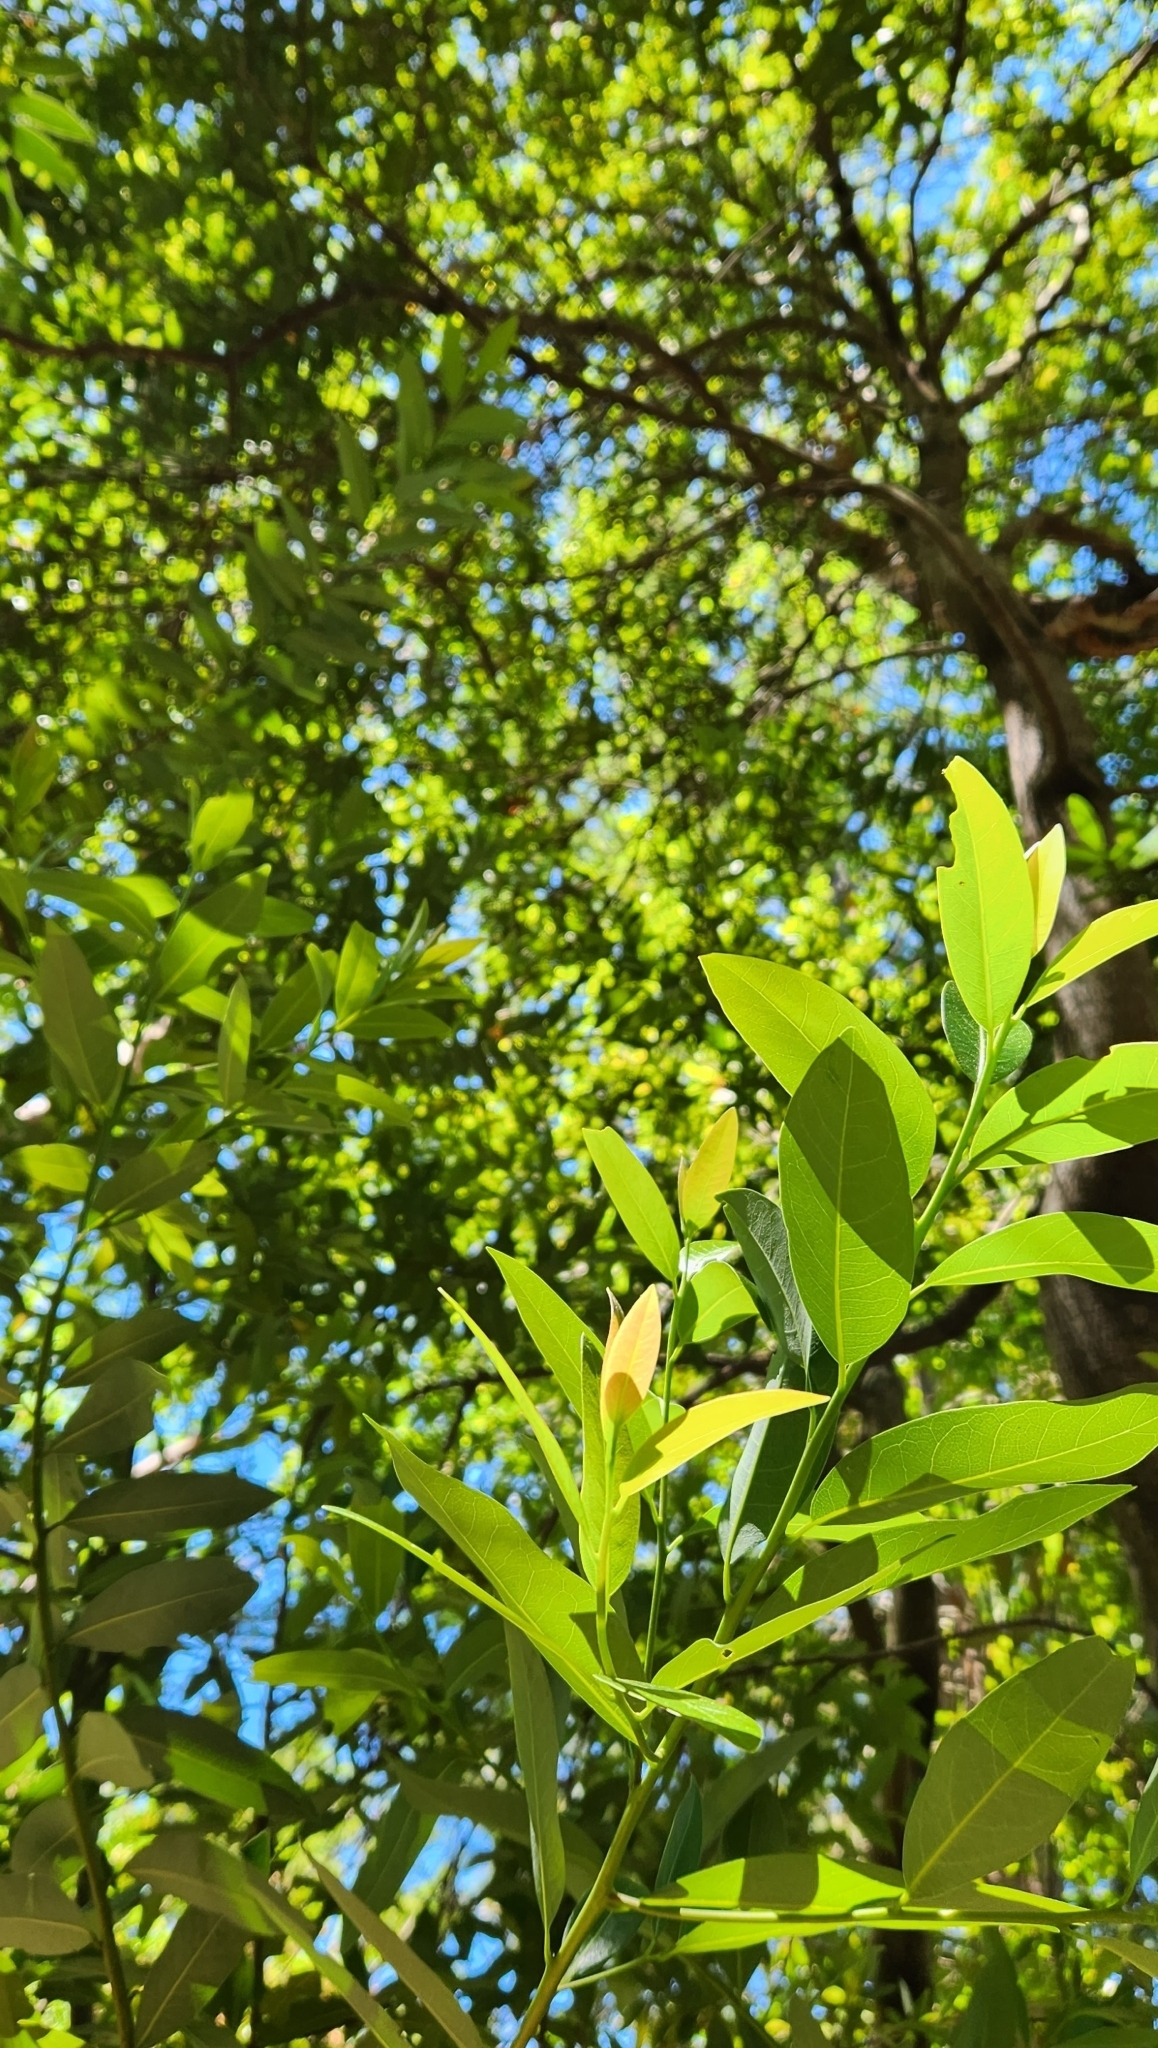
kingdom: Plantae
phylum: Tracheophyta
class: Magnoliopsida
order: Laurales
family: Lauraceae
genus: Umbellularia
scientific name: Umbellularia californica
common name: California bay
